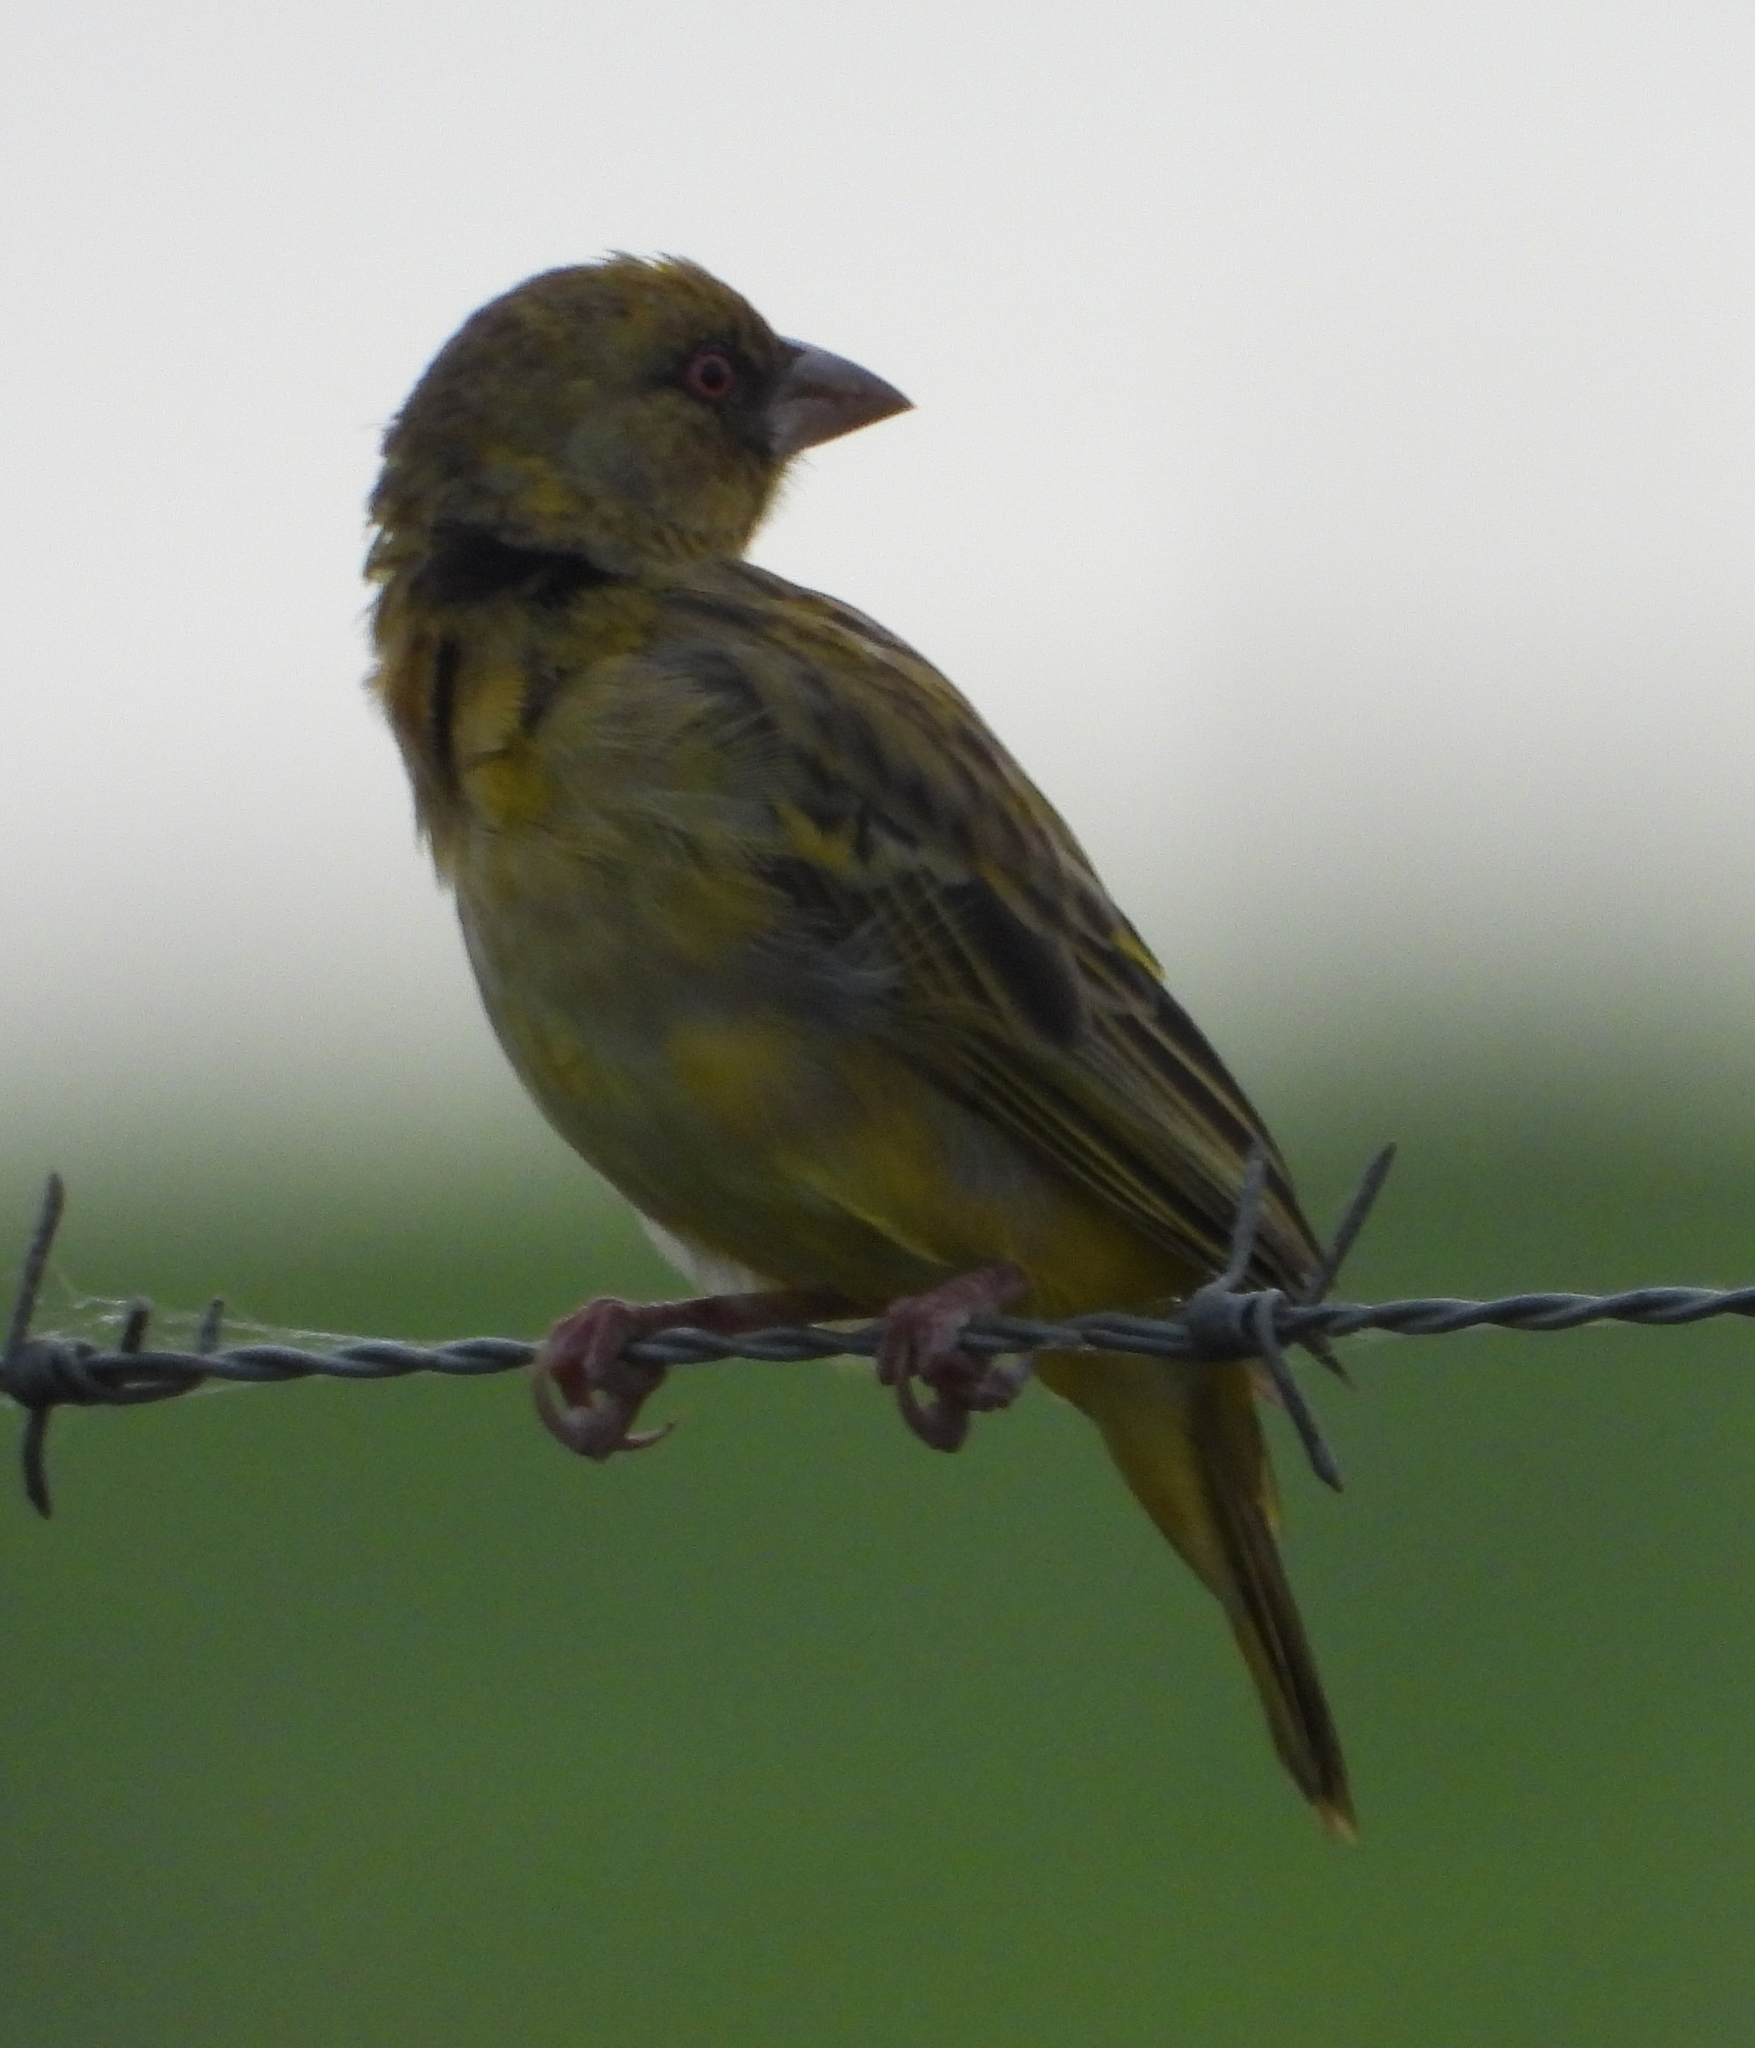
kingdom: Animalia
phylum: Chordata
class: Aves
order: Passeriformes
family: Ploceidae
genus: Ploceus
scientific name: Ploceus velatus
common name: Southern masked weaver
